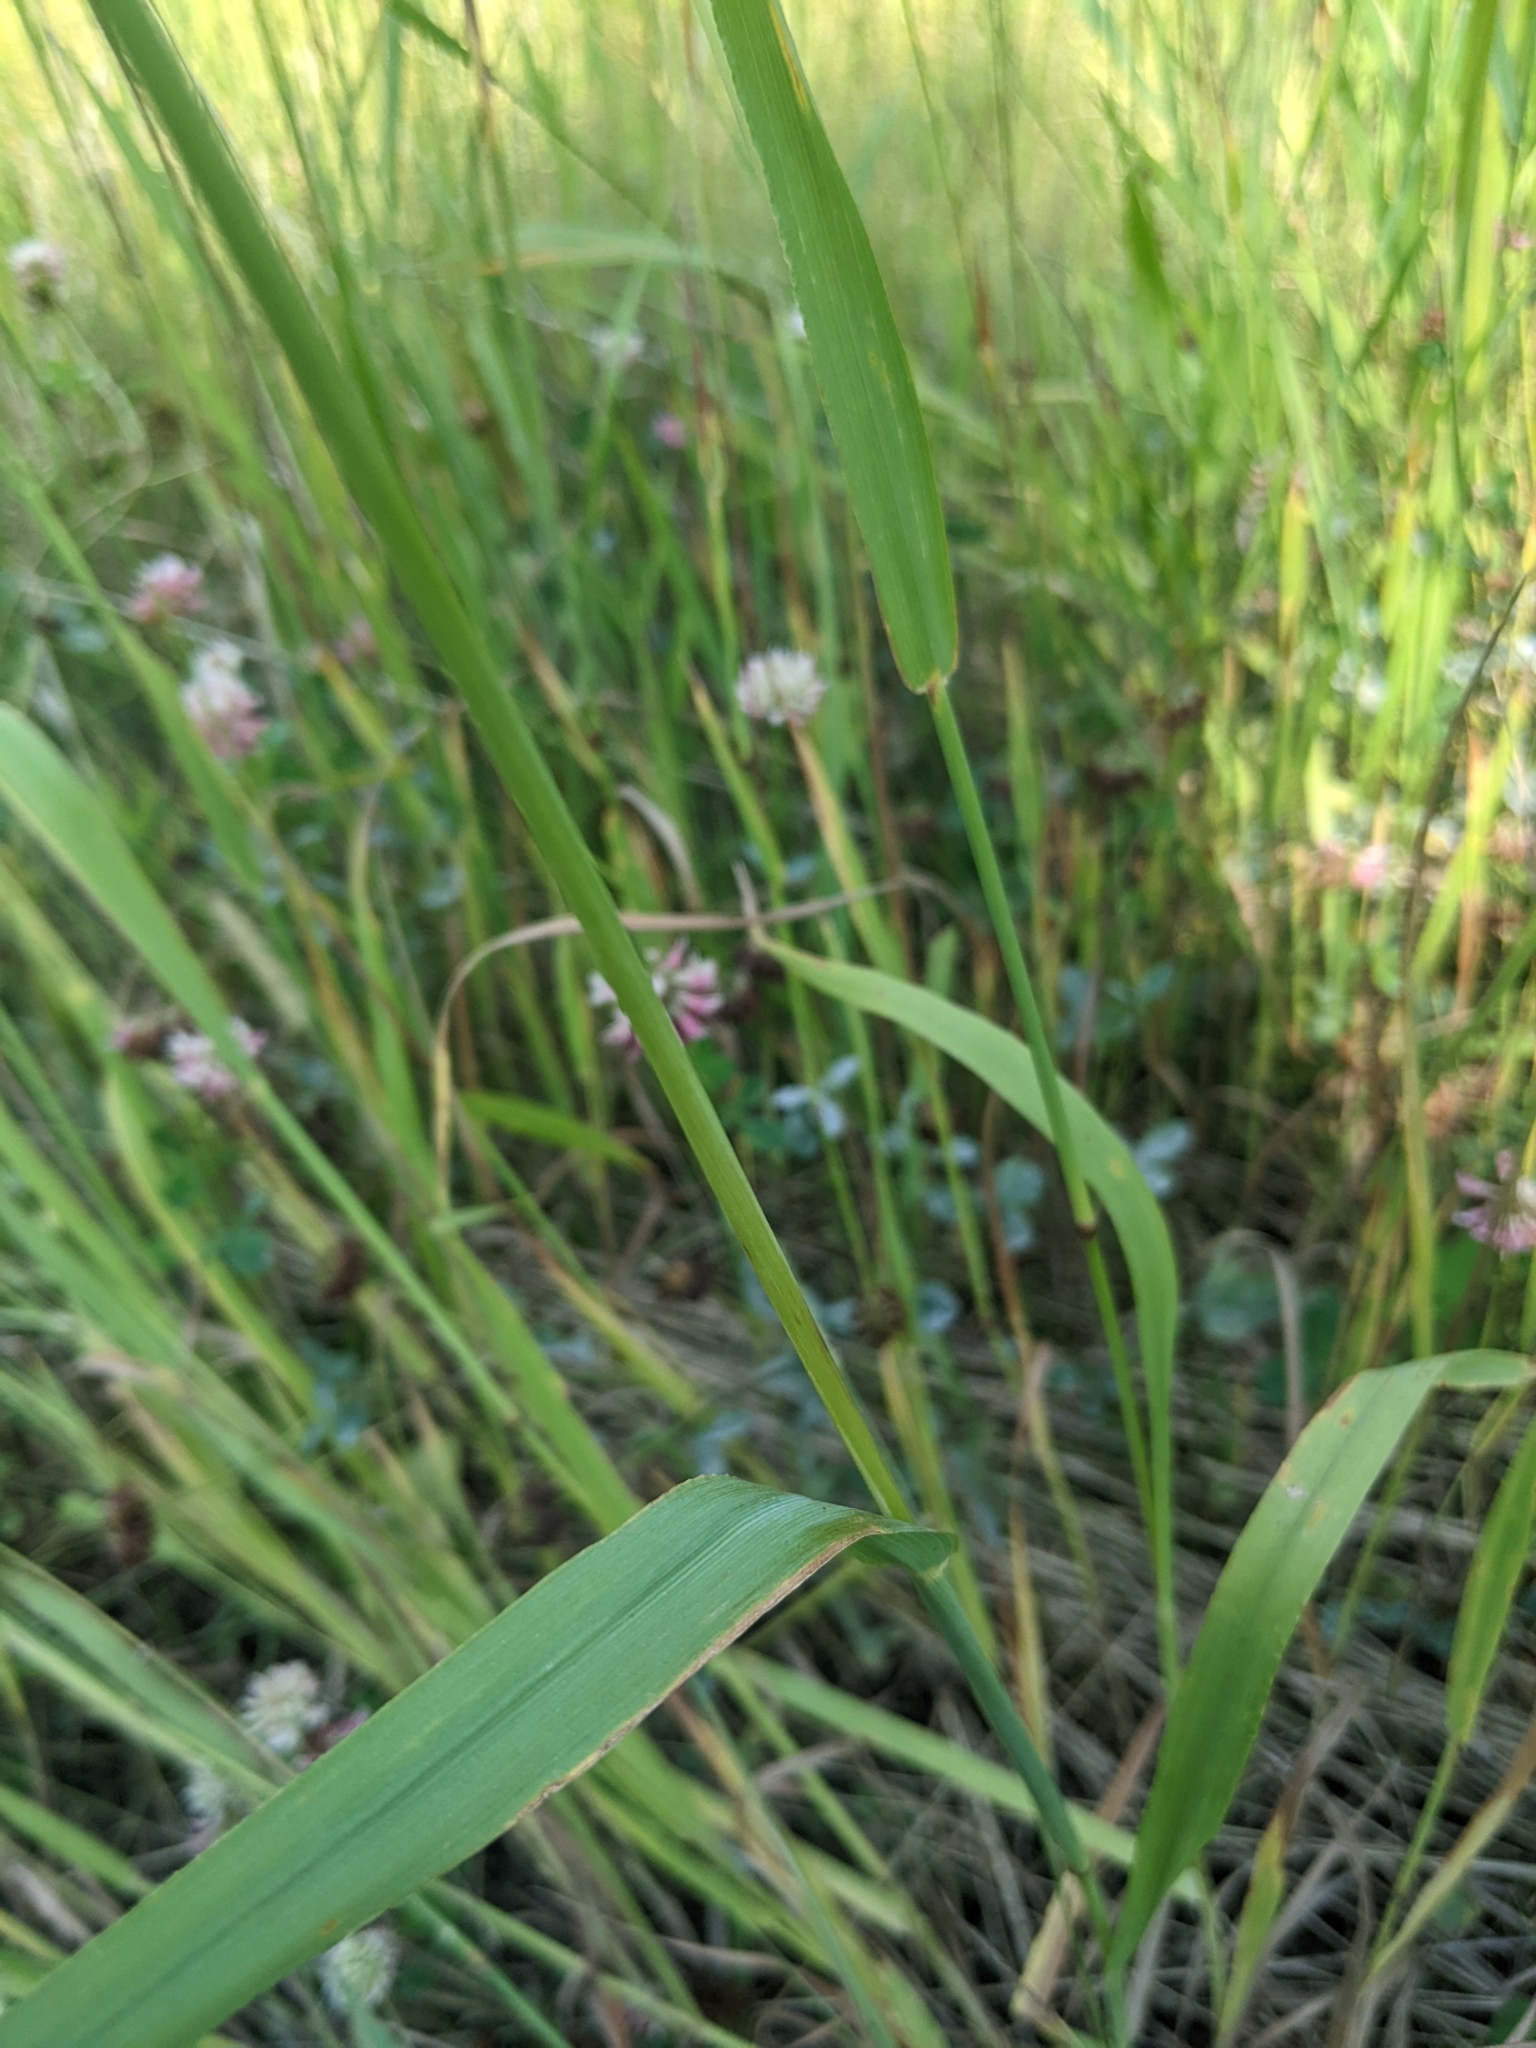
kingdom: Plantae
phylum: Tracheophyta
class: Liliopsida
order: Poales
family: Poaceae
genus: Phleum
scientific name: Phleum pratense
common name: Timothy grass
